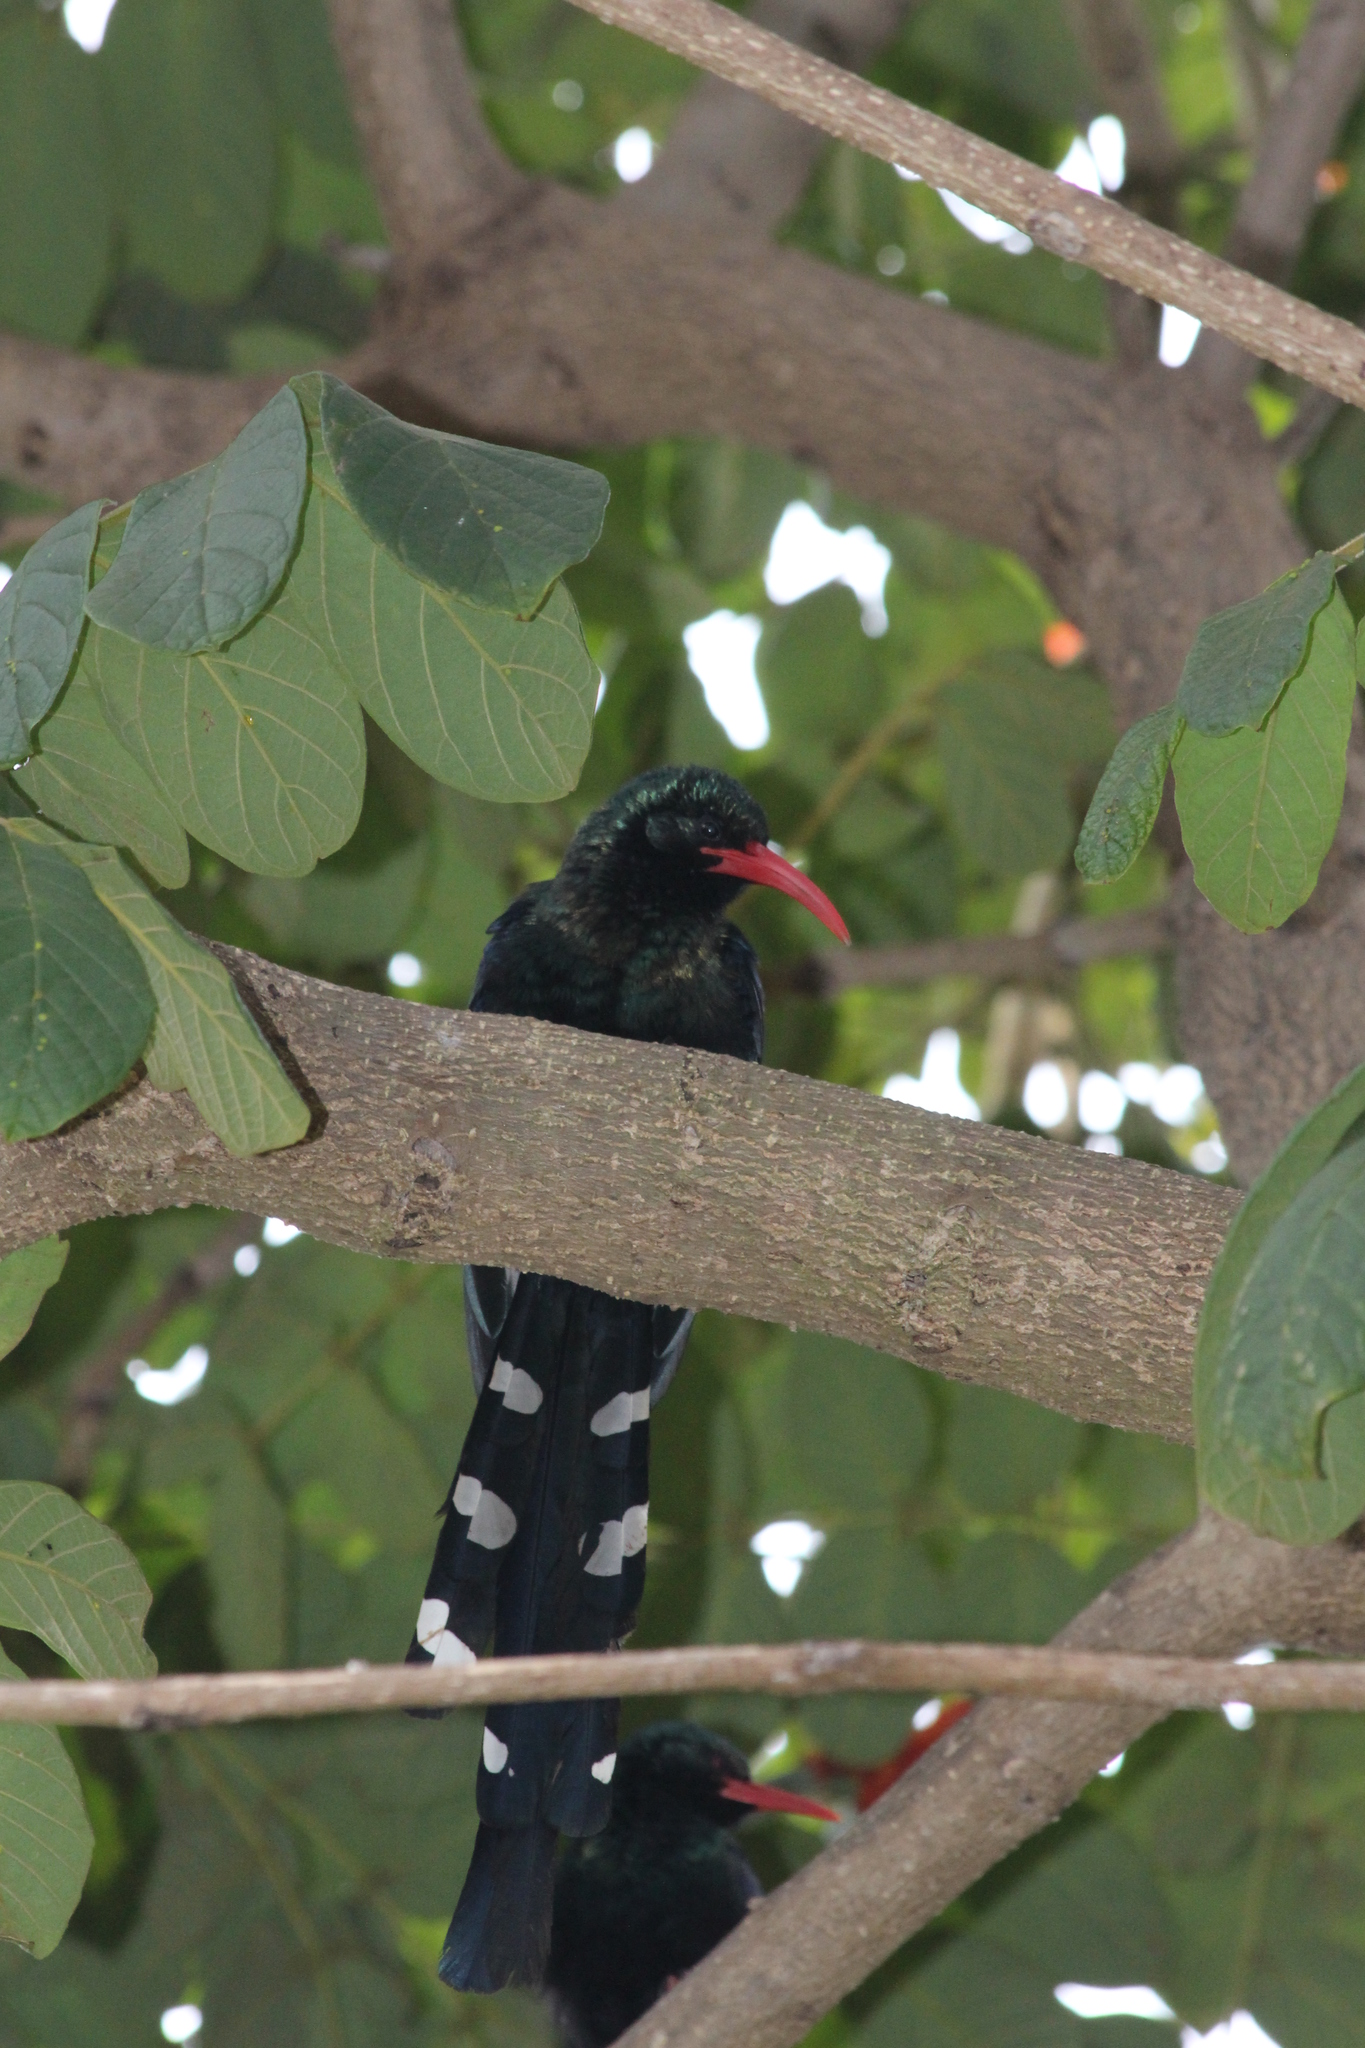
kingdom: Animalia
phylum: Chordata
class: Aves
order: Bucerotiformes
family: Phoeniculidae
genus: Phoeniculus
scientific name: Phoeniculus purpureus
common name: Green woodhoopoe
